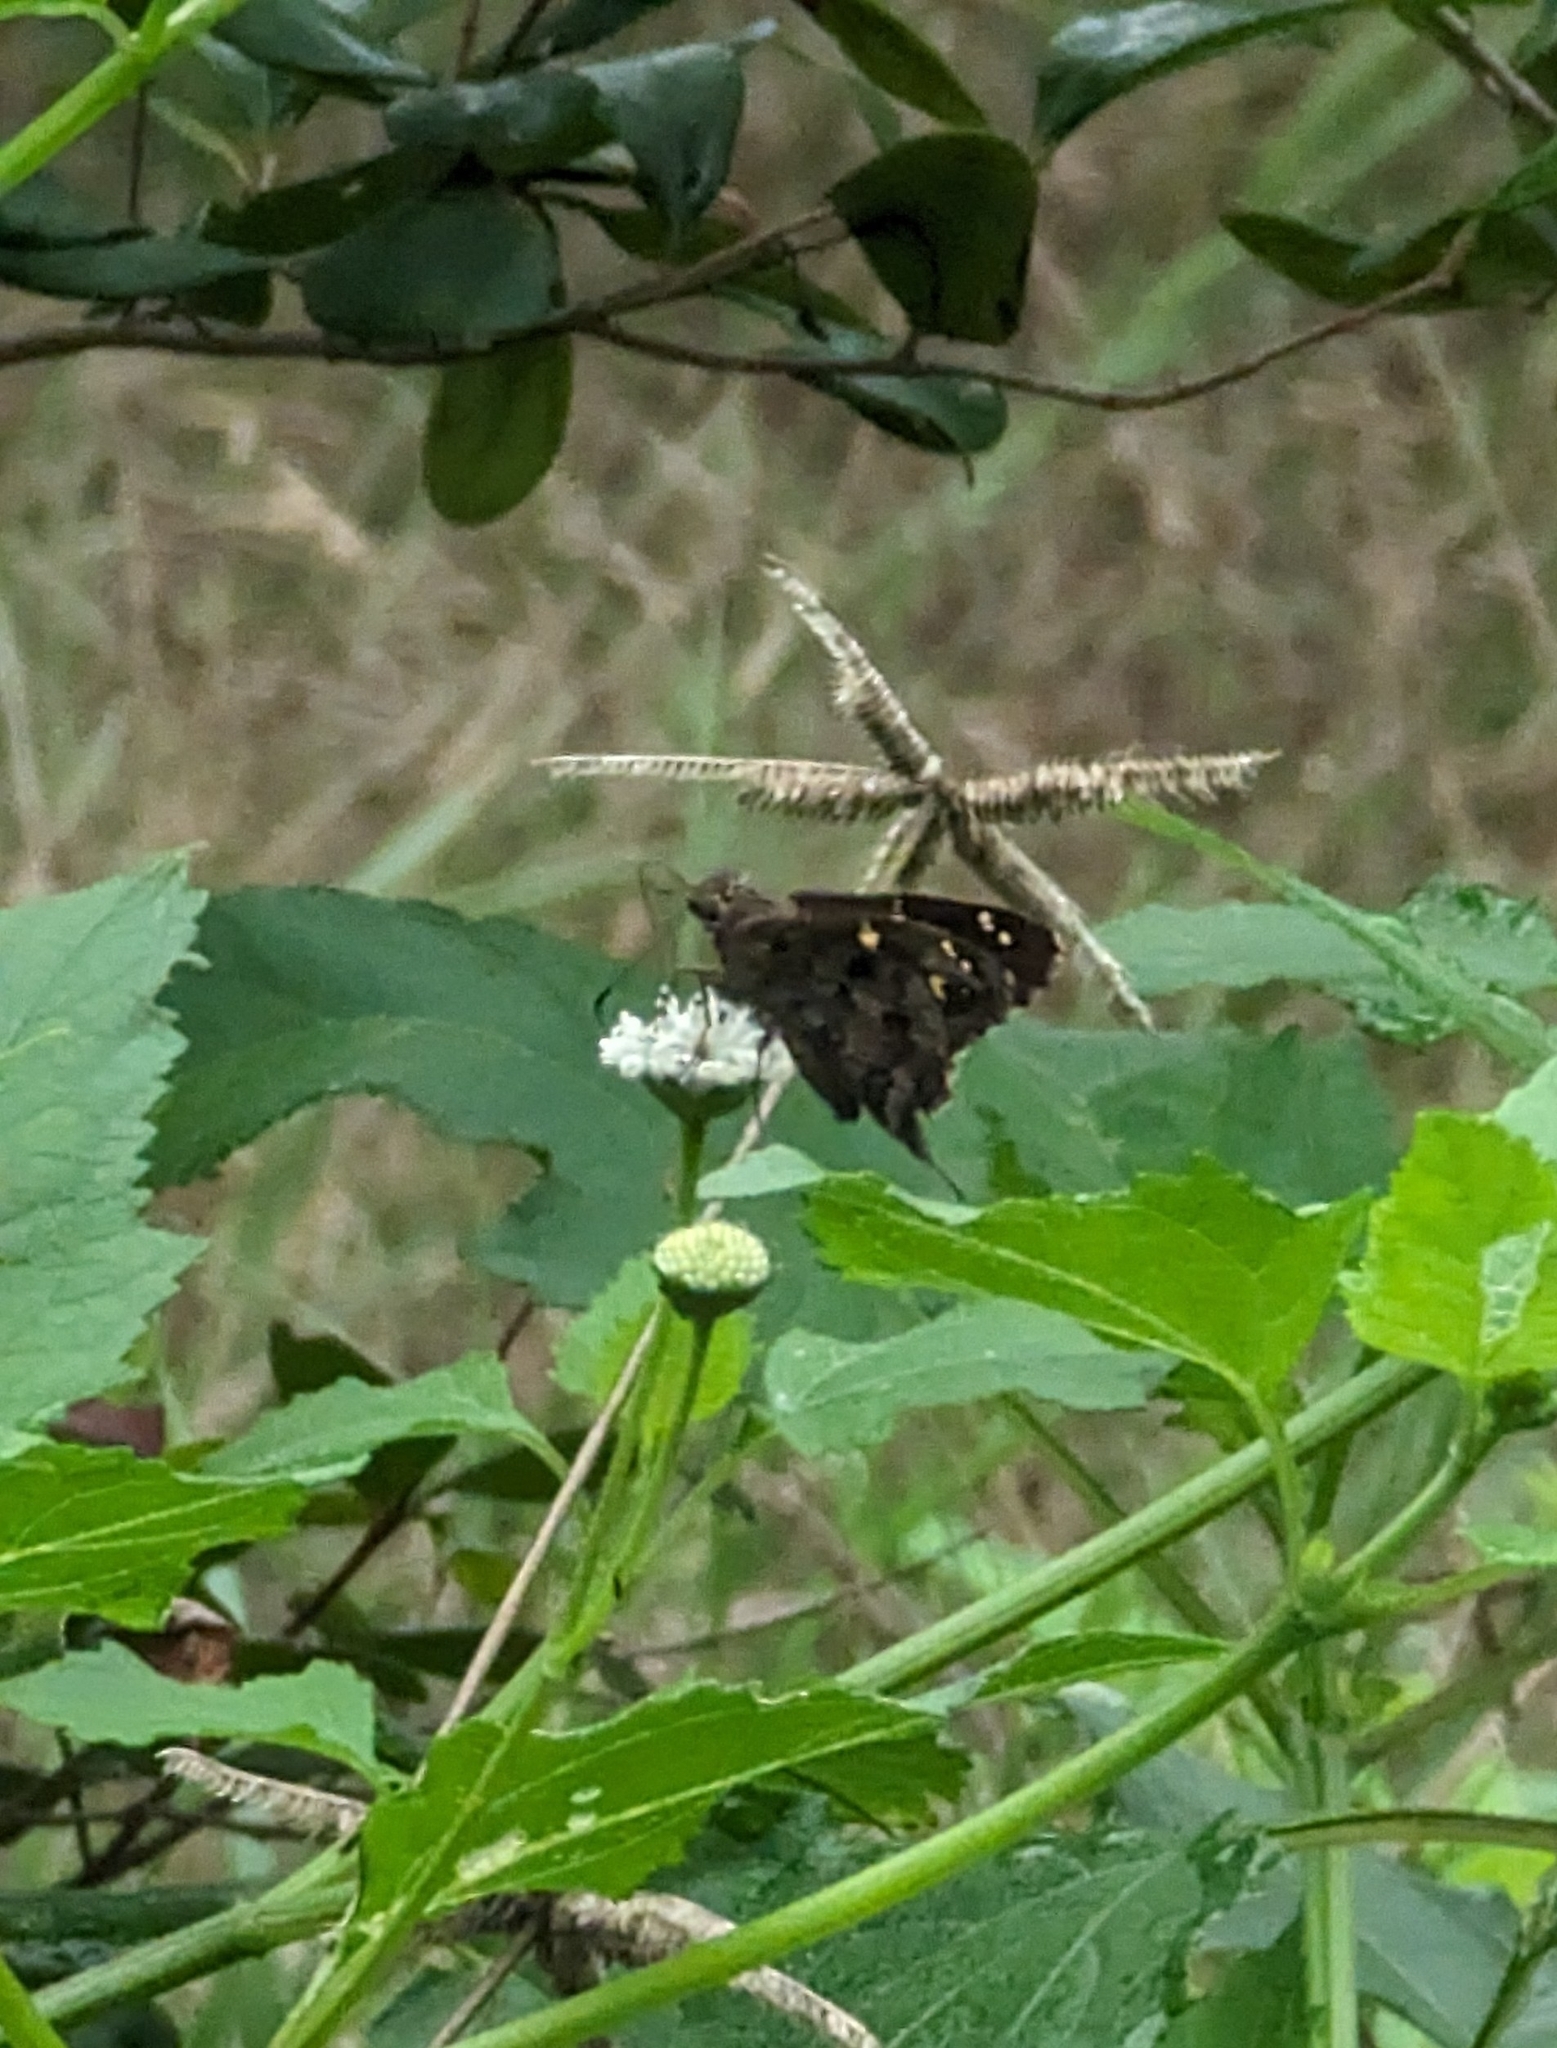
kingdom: Animalia
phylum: Arthropoda
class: Insecta
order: Lepidoptera
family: Hesperiidae
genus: Thorybes
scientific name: Thorybes
